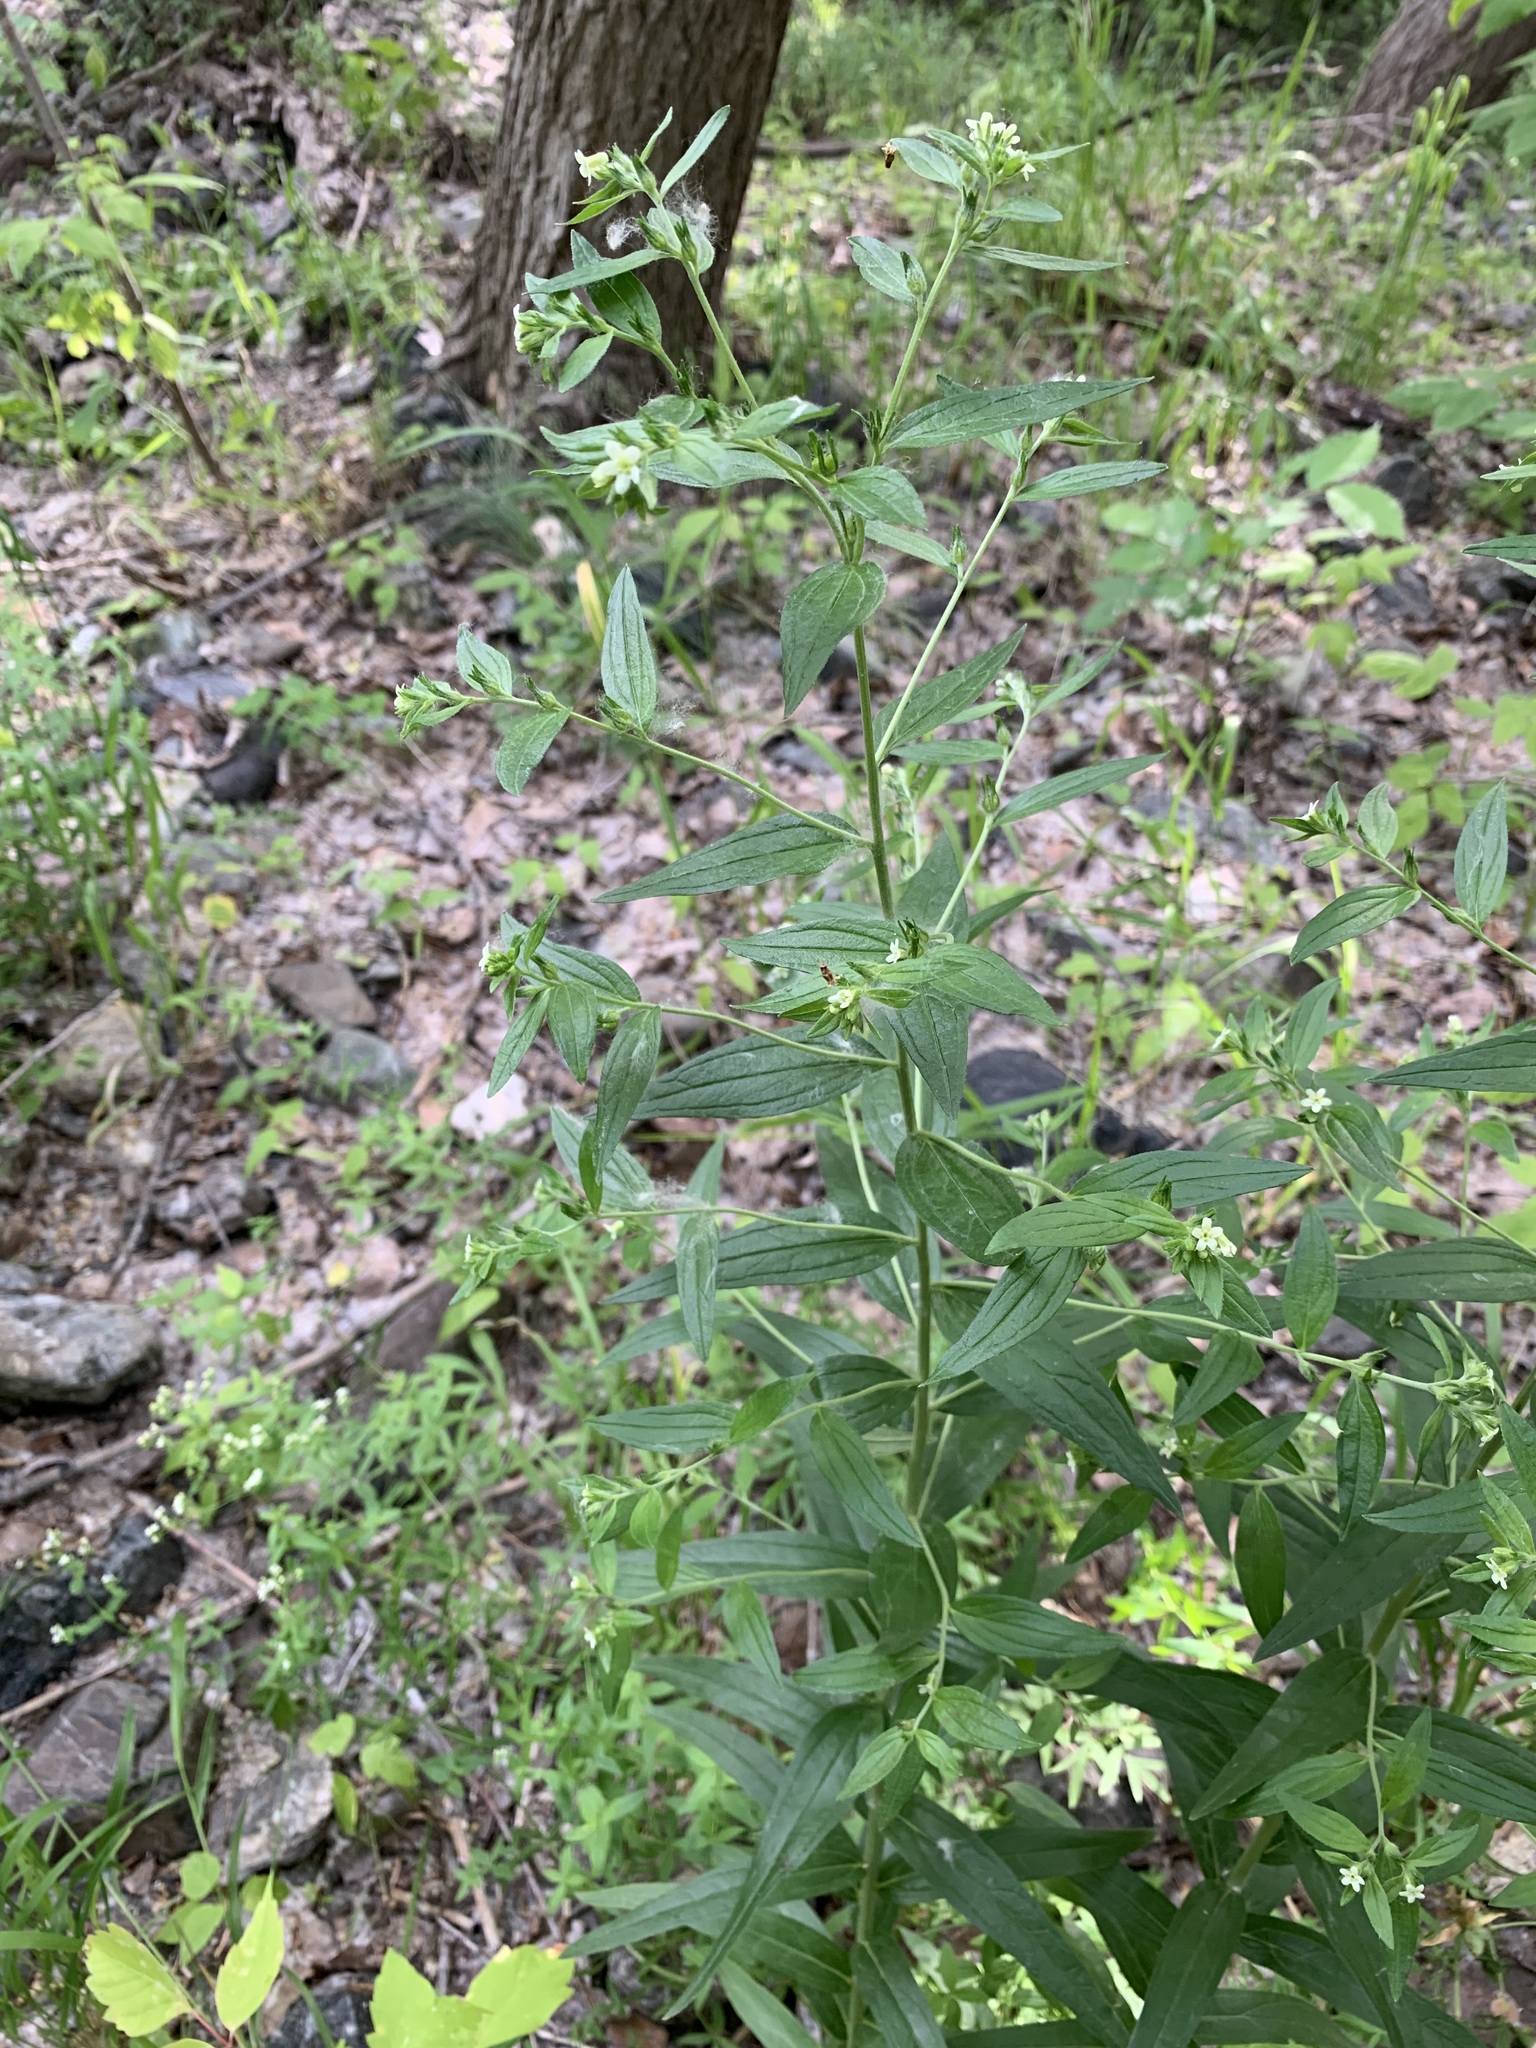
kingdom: Plantae
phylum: Tracheophyta
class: Magnoliopsida
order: Boraginales
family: Boraginaceae
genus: Lithospermum
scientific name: Lithospermum officinale
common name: Common gromwell
